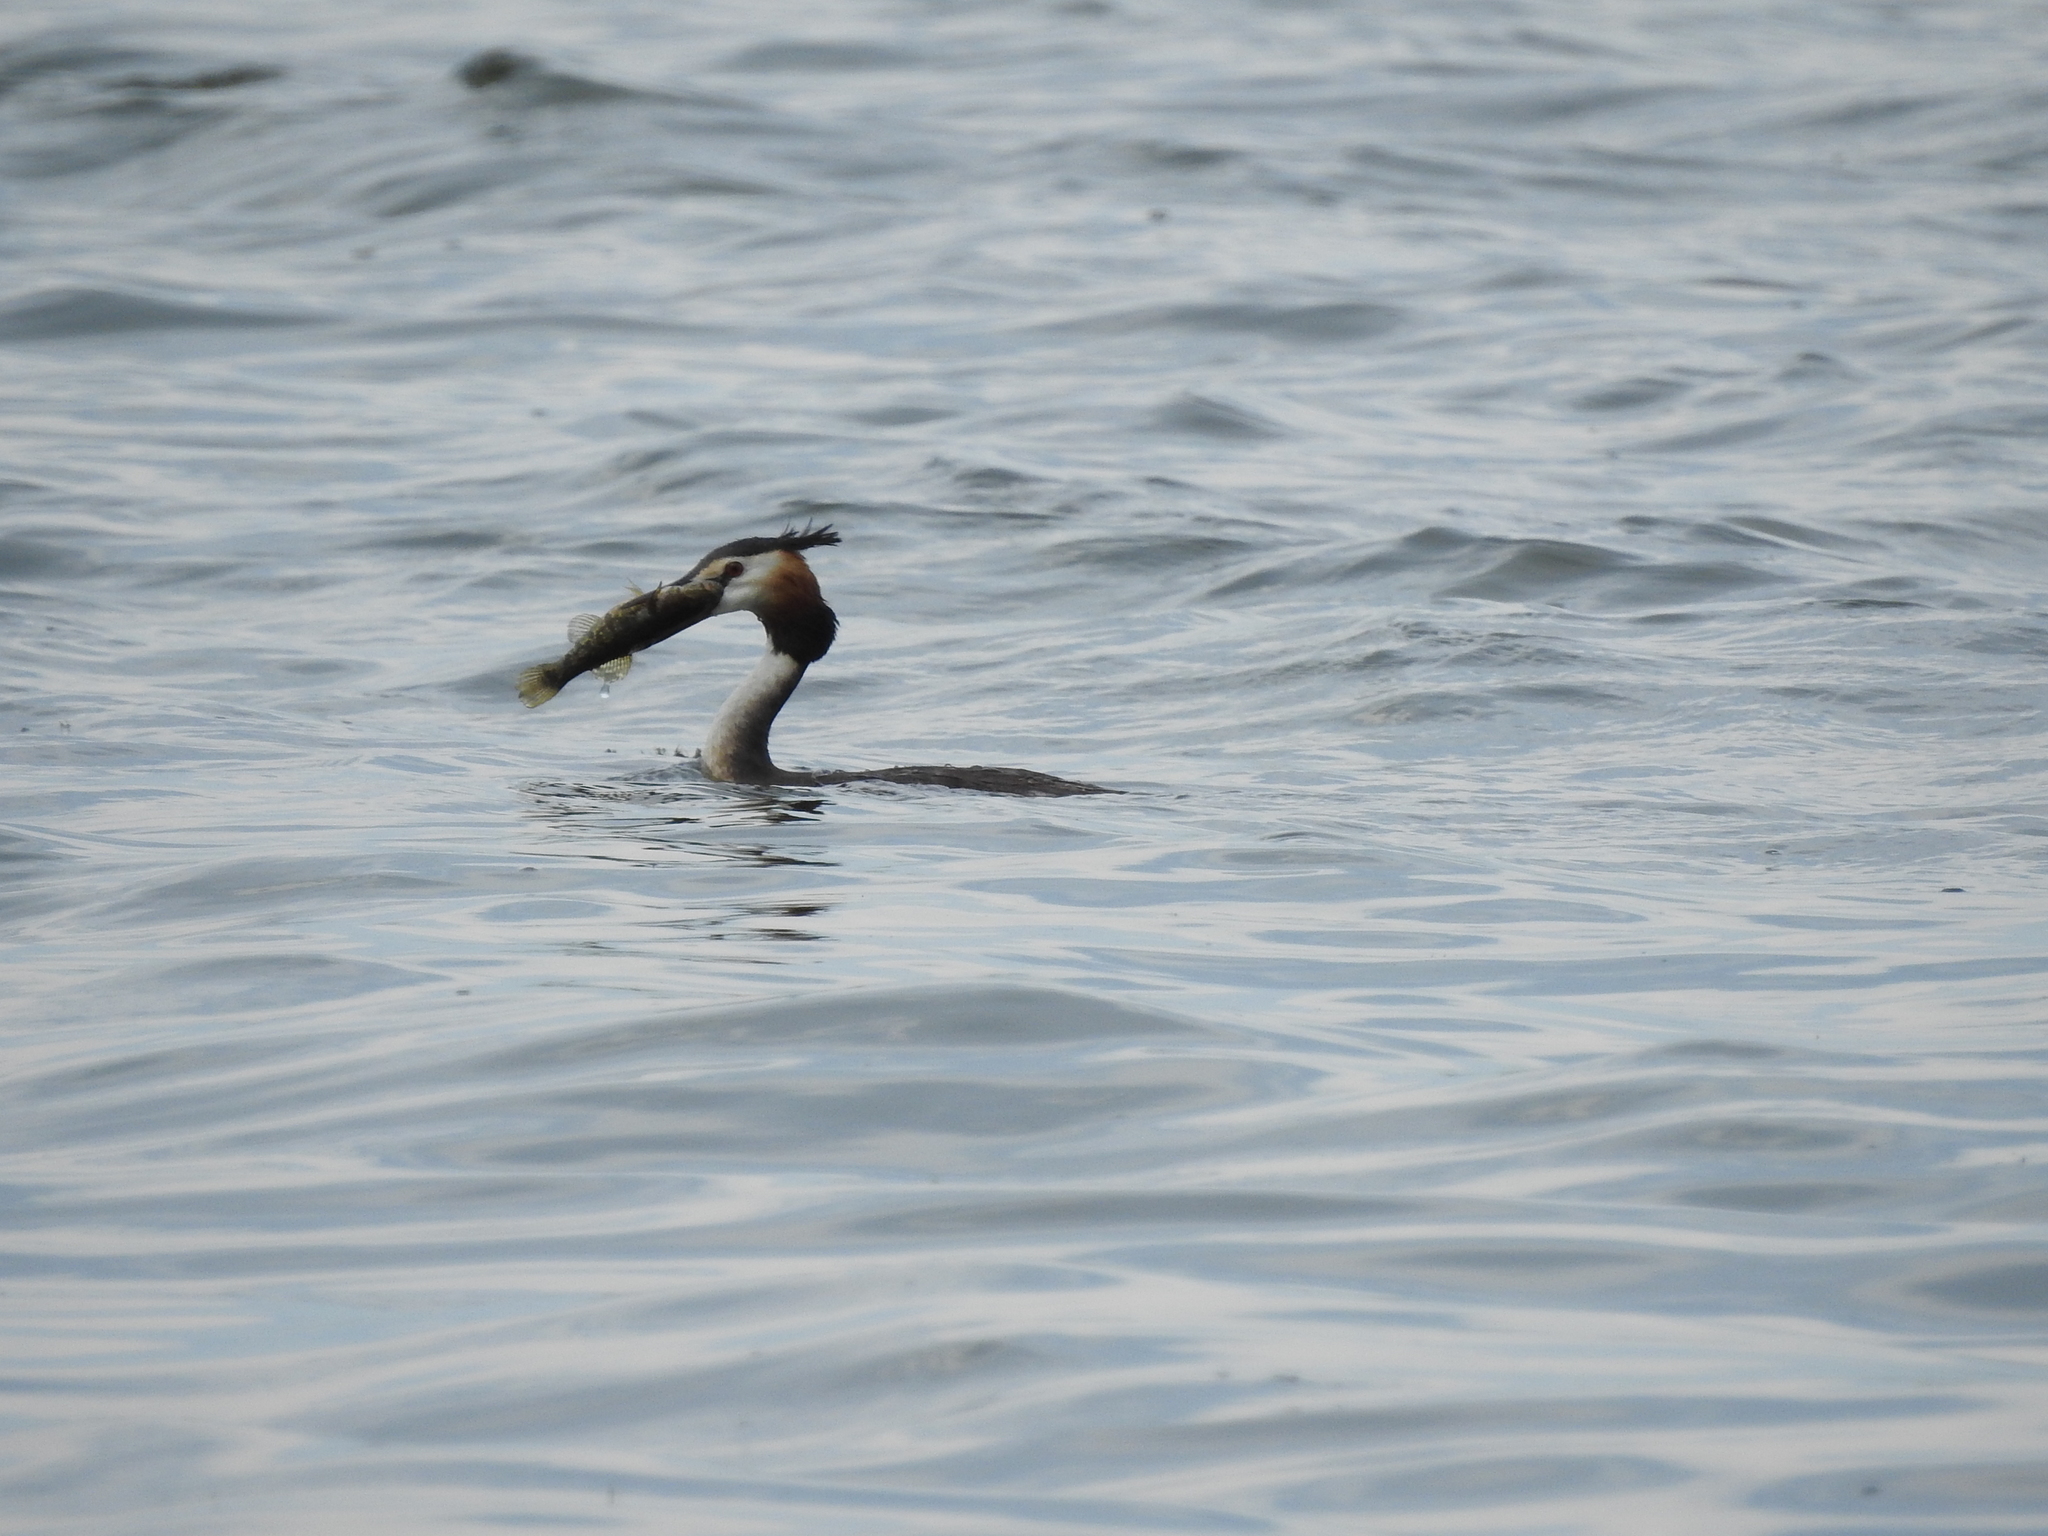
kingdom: Animalia
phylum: Chordata
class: Aves
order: Podicipediformes
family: Podicipedidae
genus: Podiceps
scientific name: Podiceps cristatus
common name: Great crested grebe
